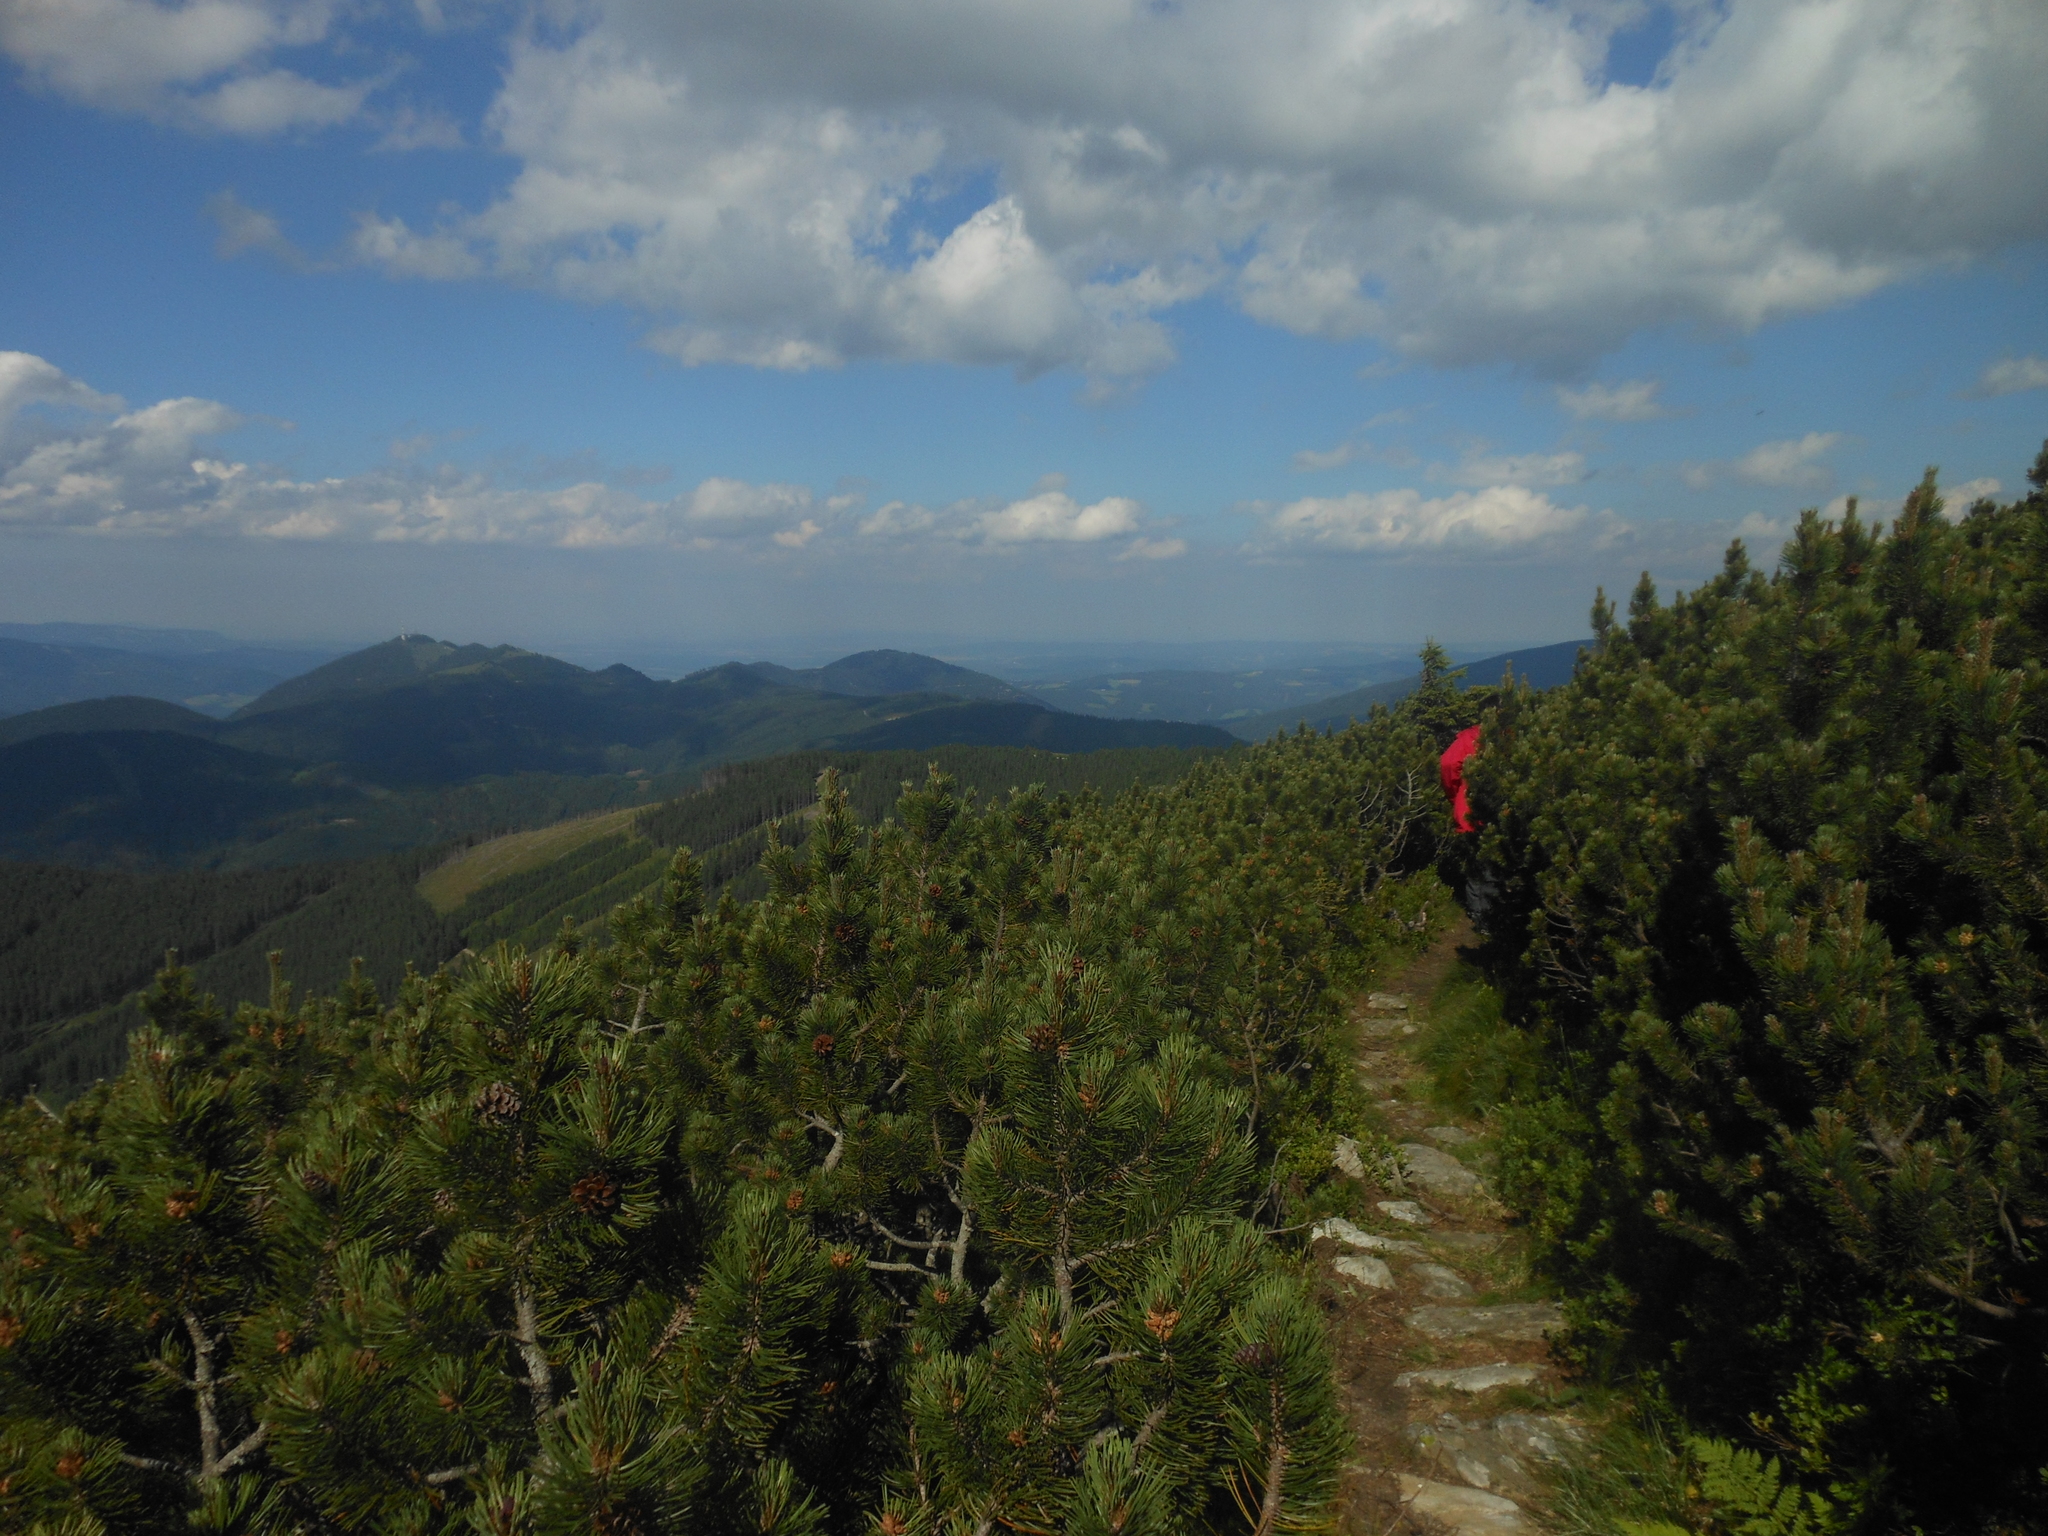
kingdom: Plantae
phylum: Tracheophyta
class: Pinopsida
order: Pinales
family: Pinaceae
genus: Pinus
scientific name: Pinus mugo
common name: Mugo pine
